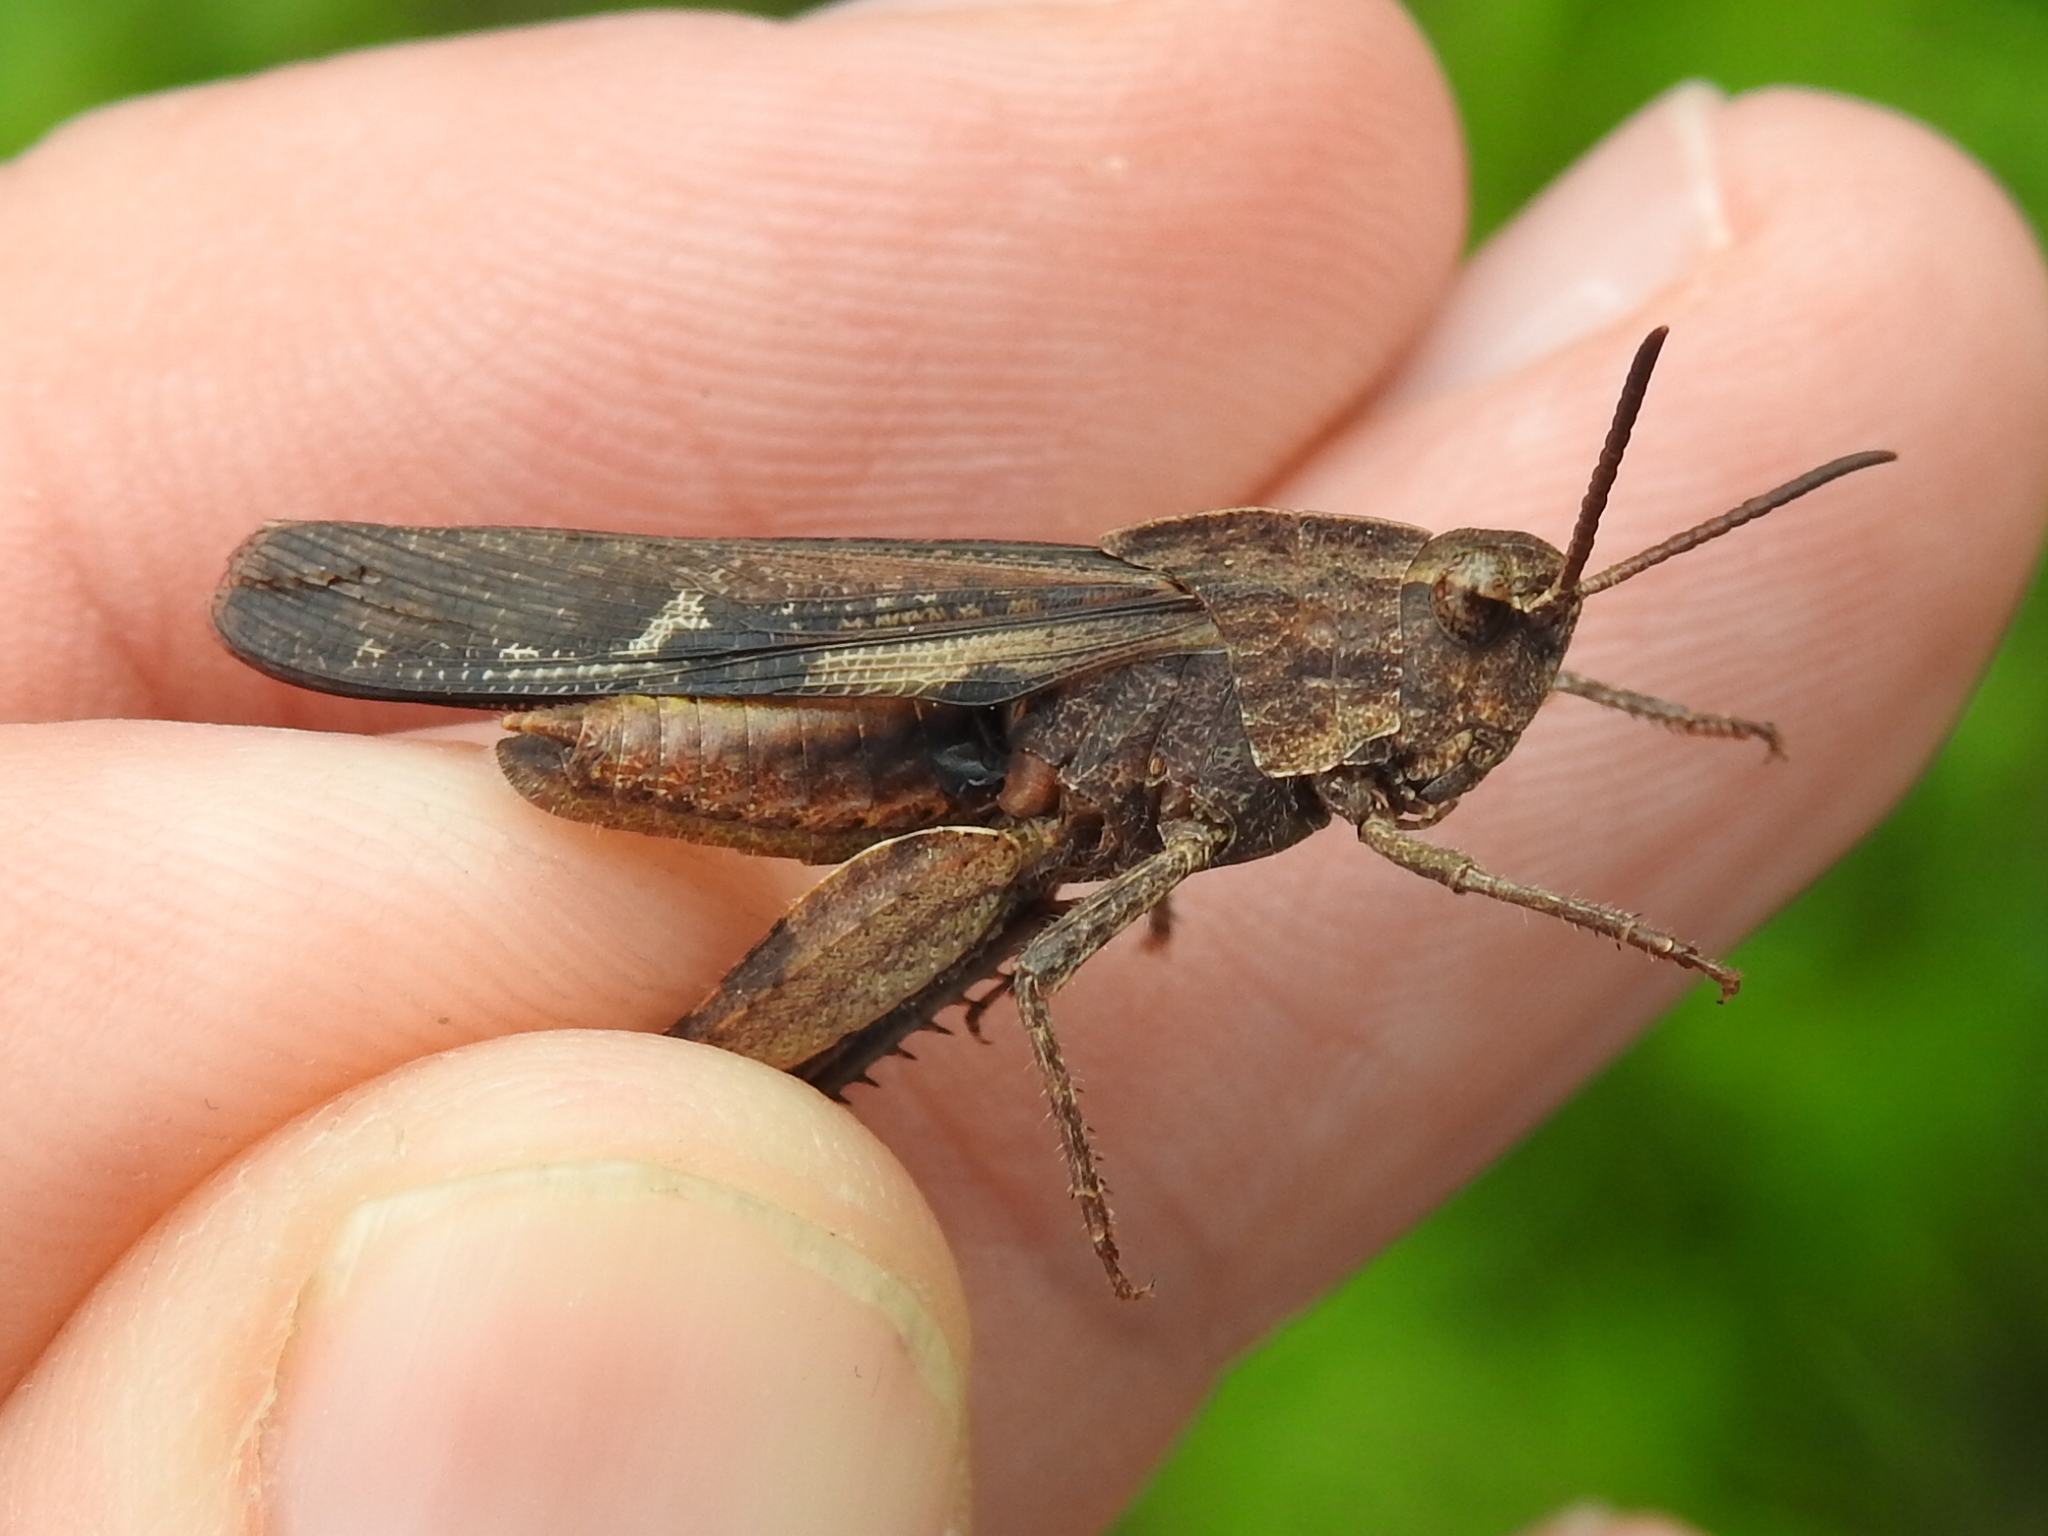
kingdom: Animalia
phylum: Arthropoda
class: Insecta
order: Orthoptera
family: Acrididae
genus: Chortophaga
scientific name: Chortophaga viridifasciata
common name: Green-striped grasshopper
